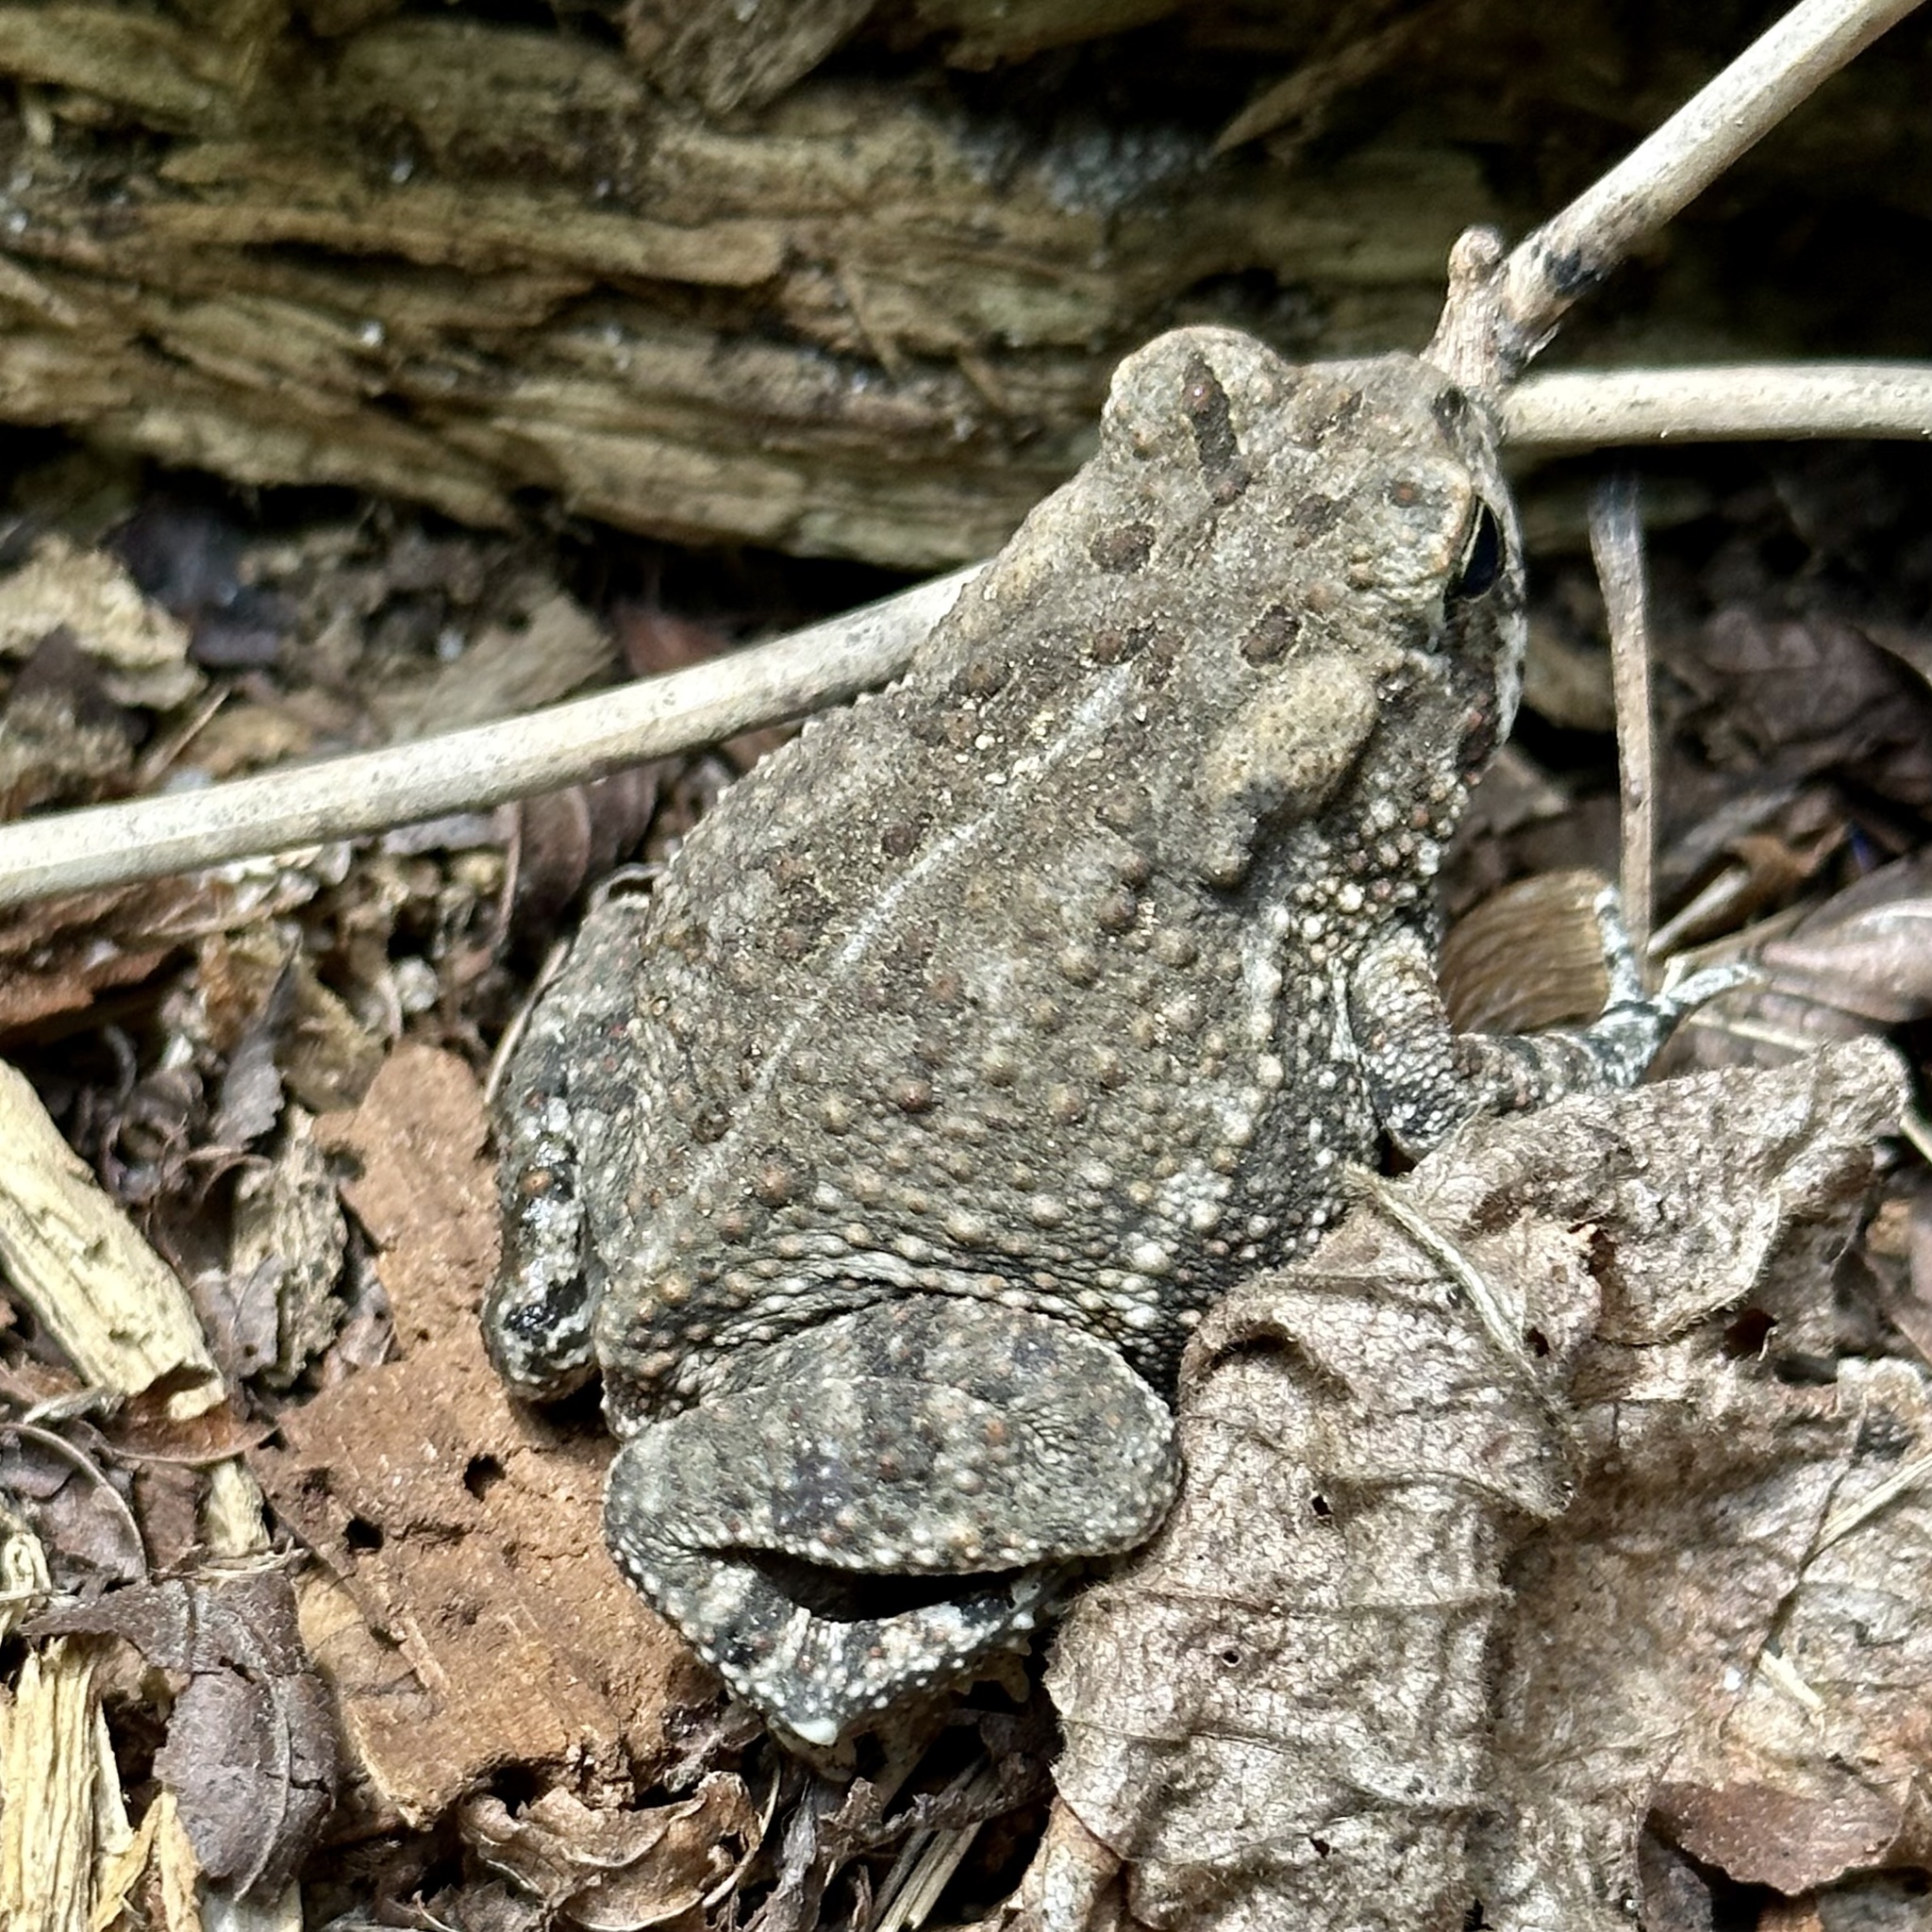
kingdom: Animalia
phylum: Chordata
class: Amphibia
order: Anura
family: Bufonidae
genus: Anaxyrus
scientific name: Anaxyrus fowleri
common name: Fowler's toad
